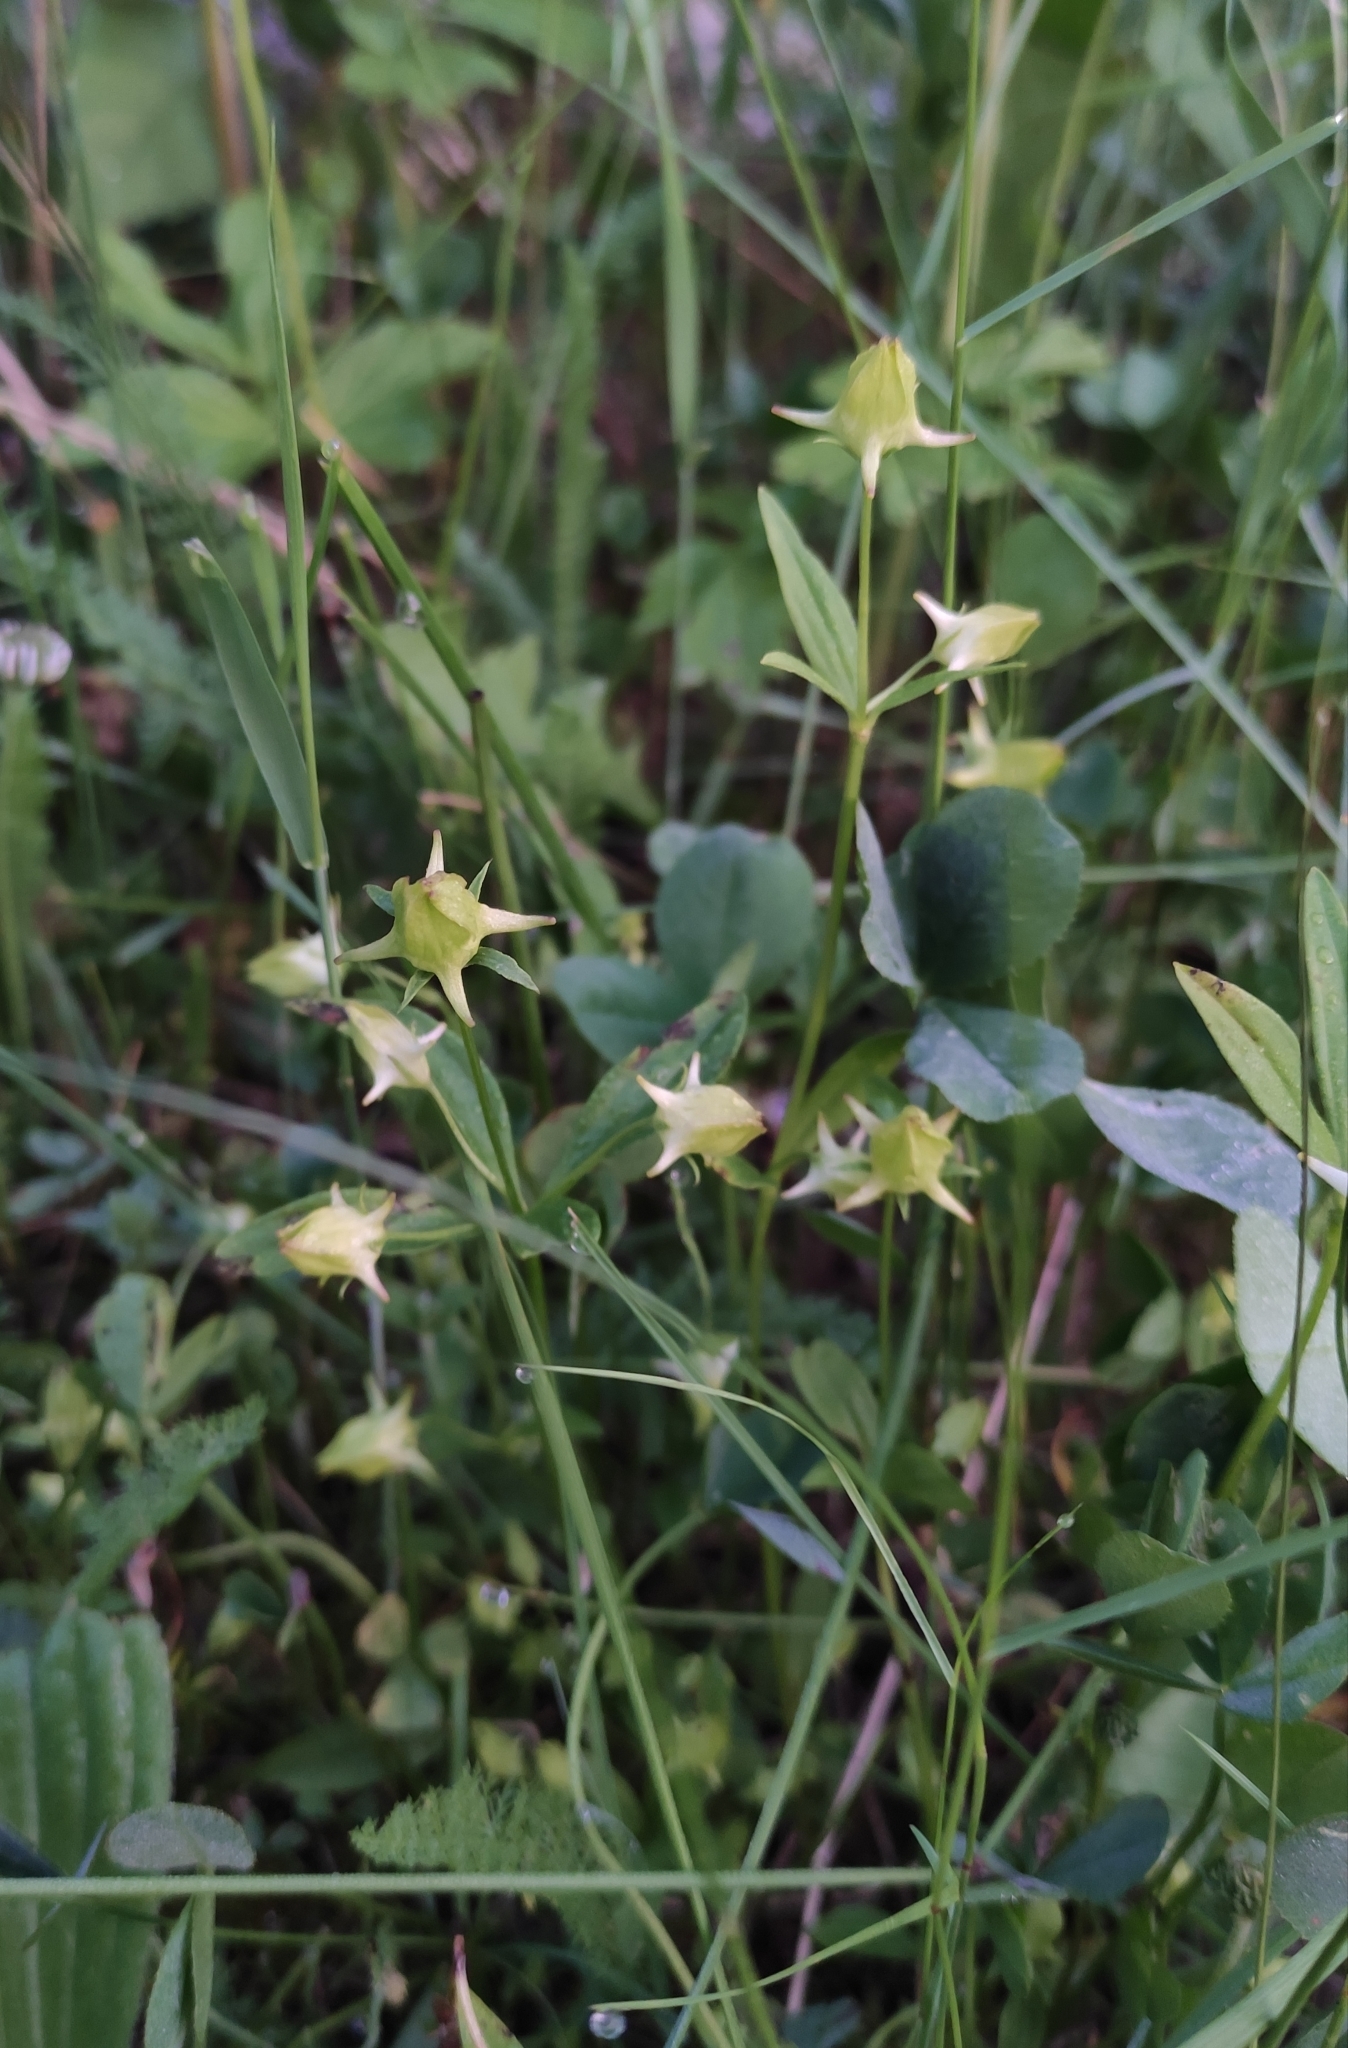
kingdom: Plantae
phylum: Tracheophyta
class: Magnoliopsida
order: Gentianales
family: Gentianaceae
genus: Halenia
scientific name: Halenia corniculata
